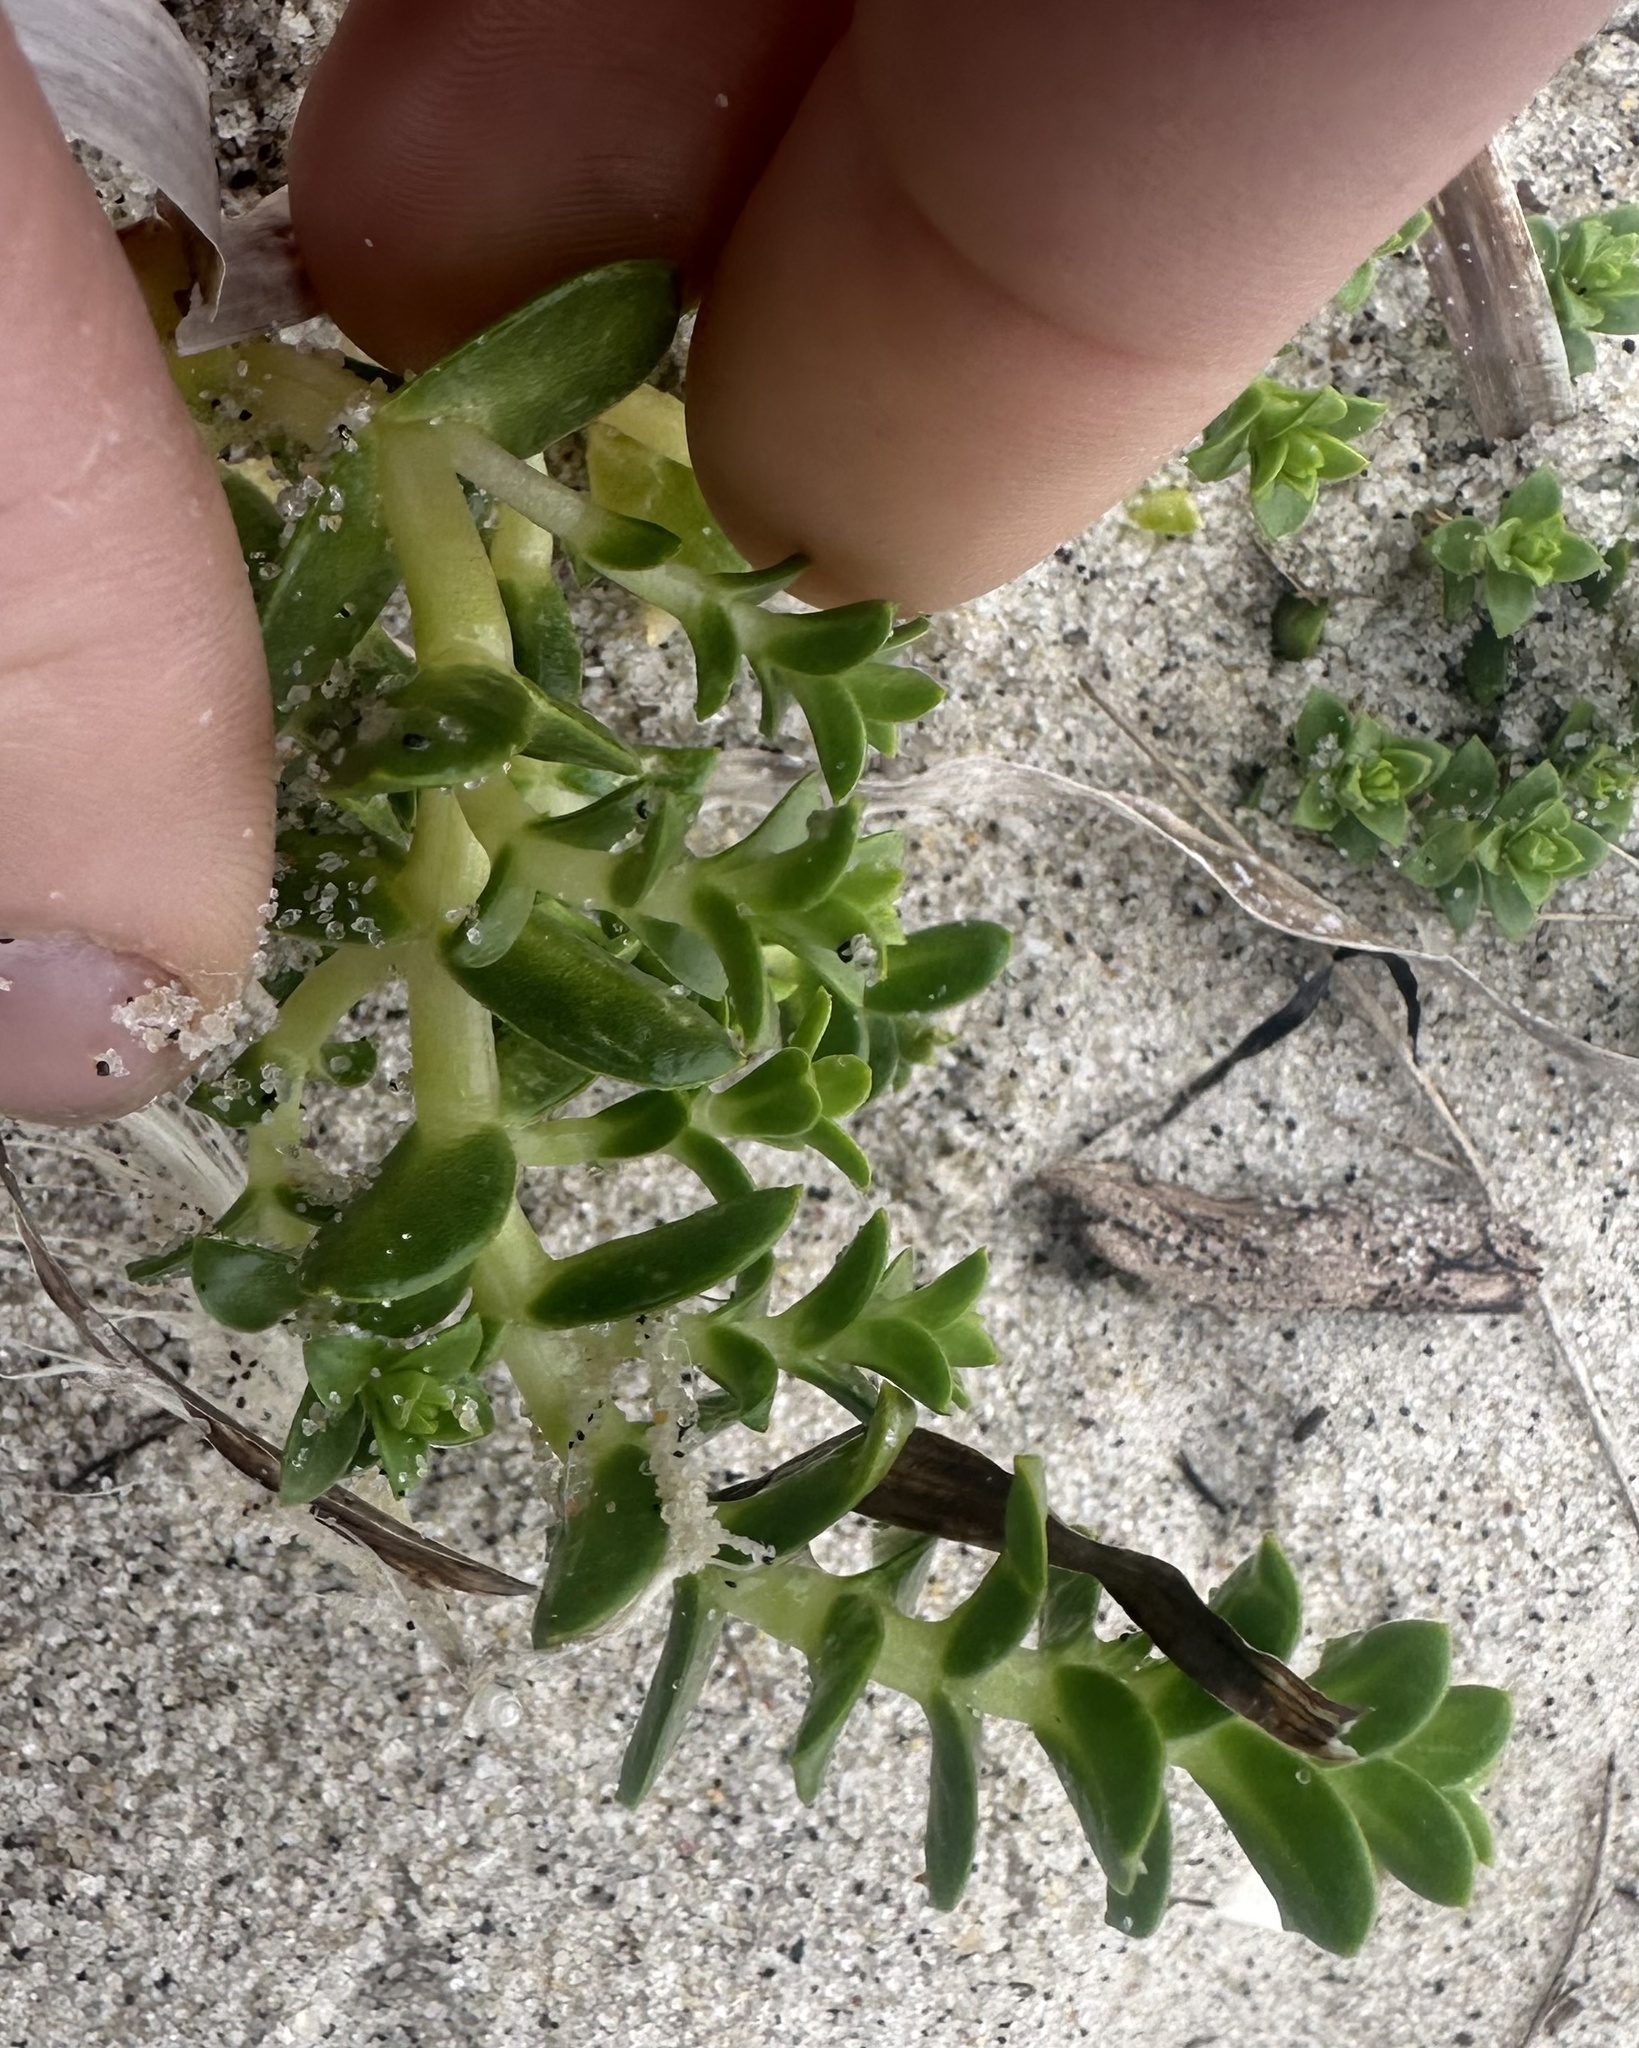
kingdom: Plantae
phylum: Tracheophyta
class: Magnoliopsida
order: Caryophyllales
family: Caryophyllaceae
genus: Honckenya
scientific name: Honckenya peploides
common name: Sea sandwort
